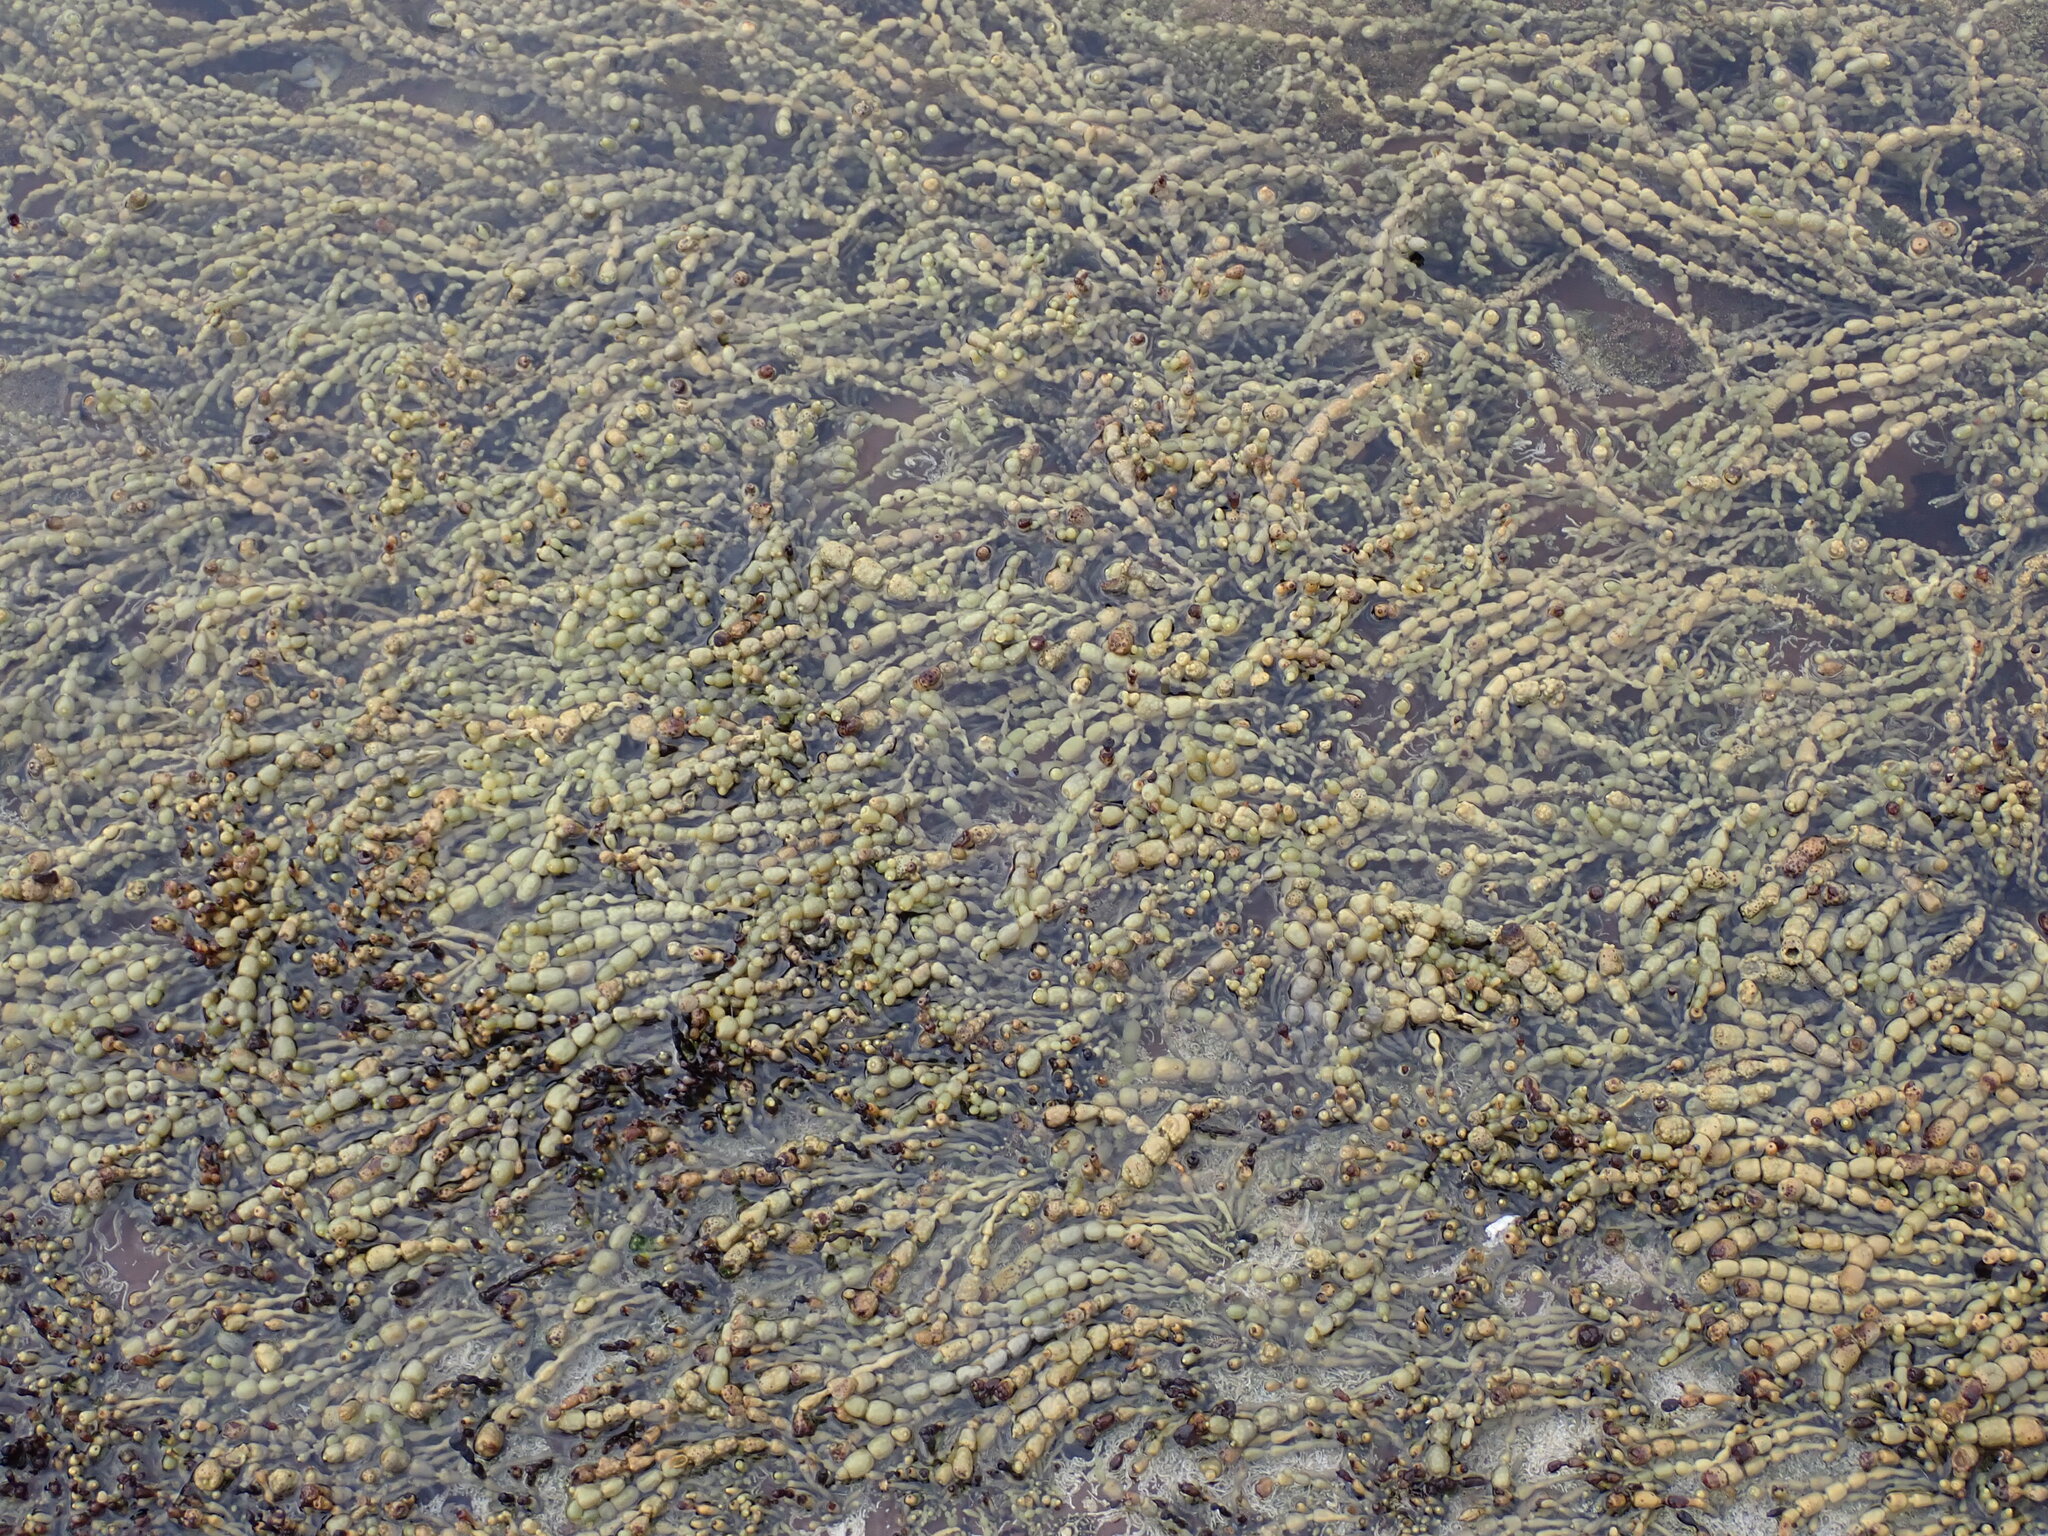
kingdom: Chromista
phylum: Ochrophyta
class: Phaeophyceae
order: Fucales
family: Hormosiraceae
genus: Hormosira
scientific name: Hormosira banksii
